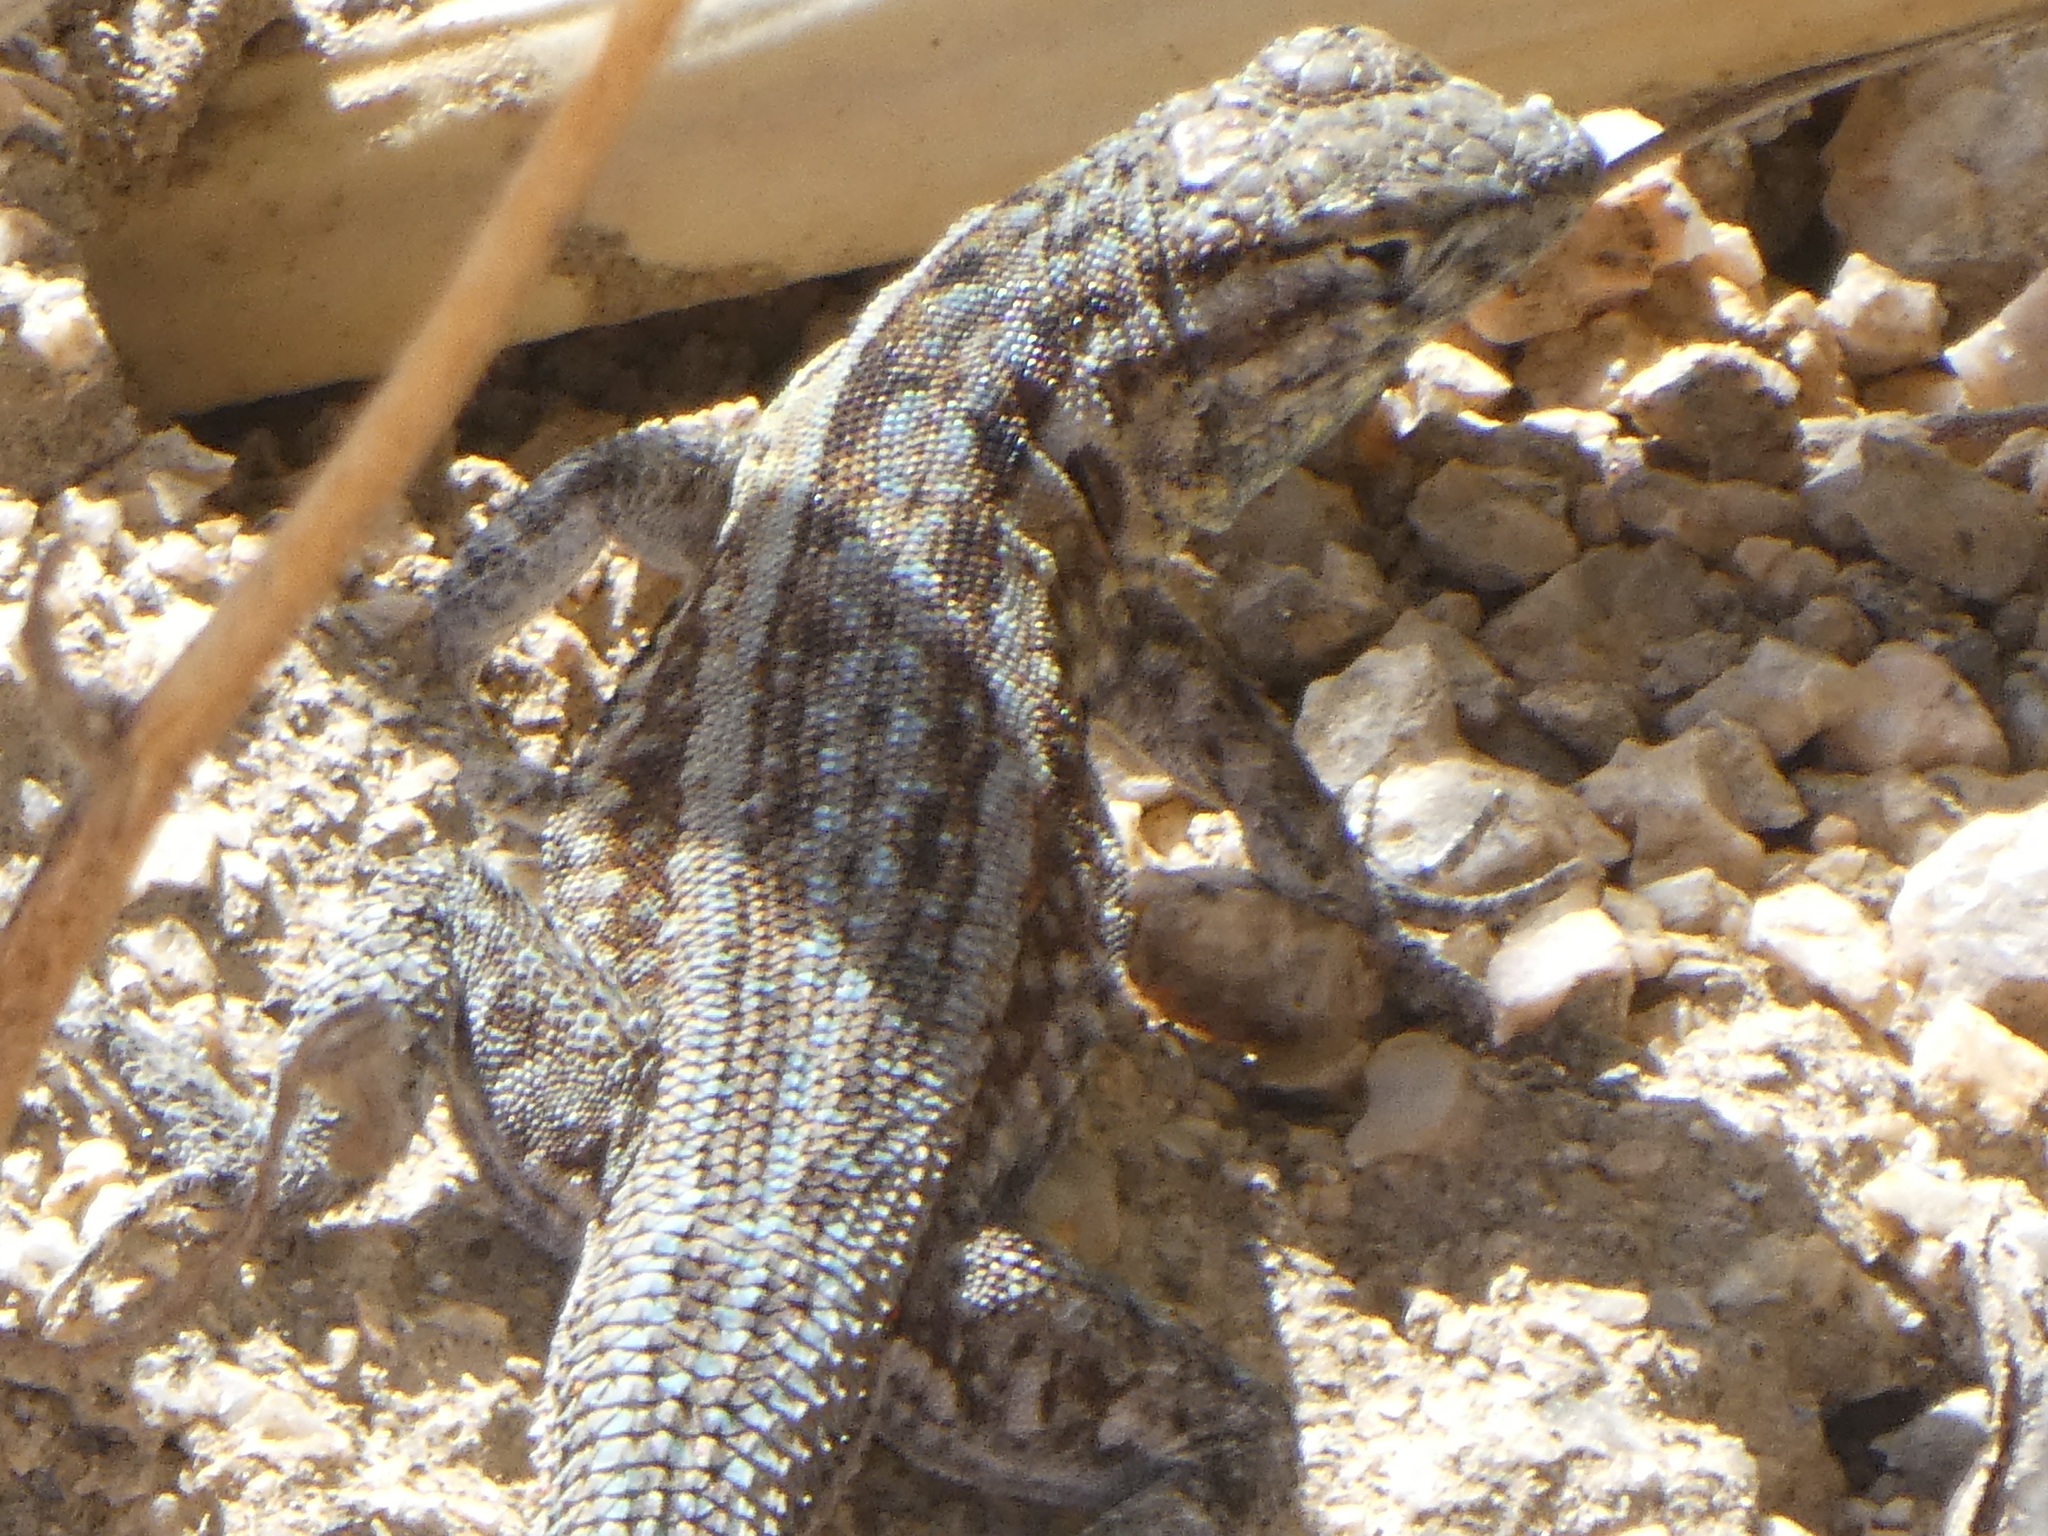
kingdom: Animalia
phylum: Chordata
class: Squamata
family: Phrynosomatidae
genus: Uta
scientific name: Uta stansburiana
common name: Side-blotched lizard
